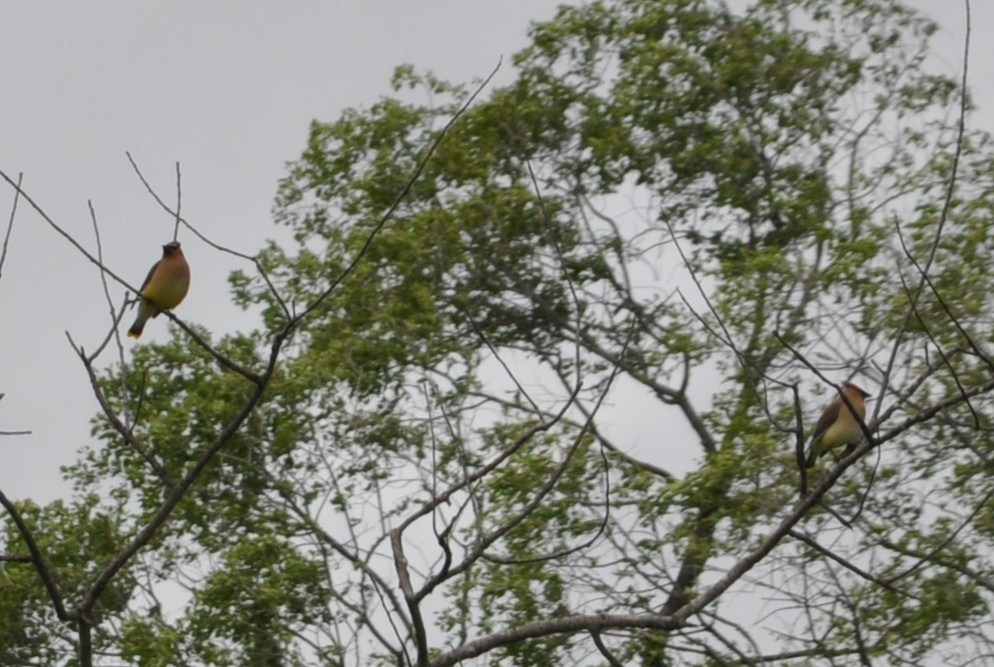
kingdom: Animalia
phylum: Chordata
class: Aves
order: Passeriformes
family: Bombycillidae
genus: Bombycilla
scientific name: Bombycilla cedrorum
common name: Cedar waxwing
